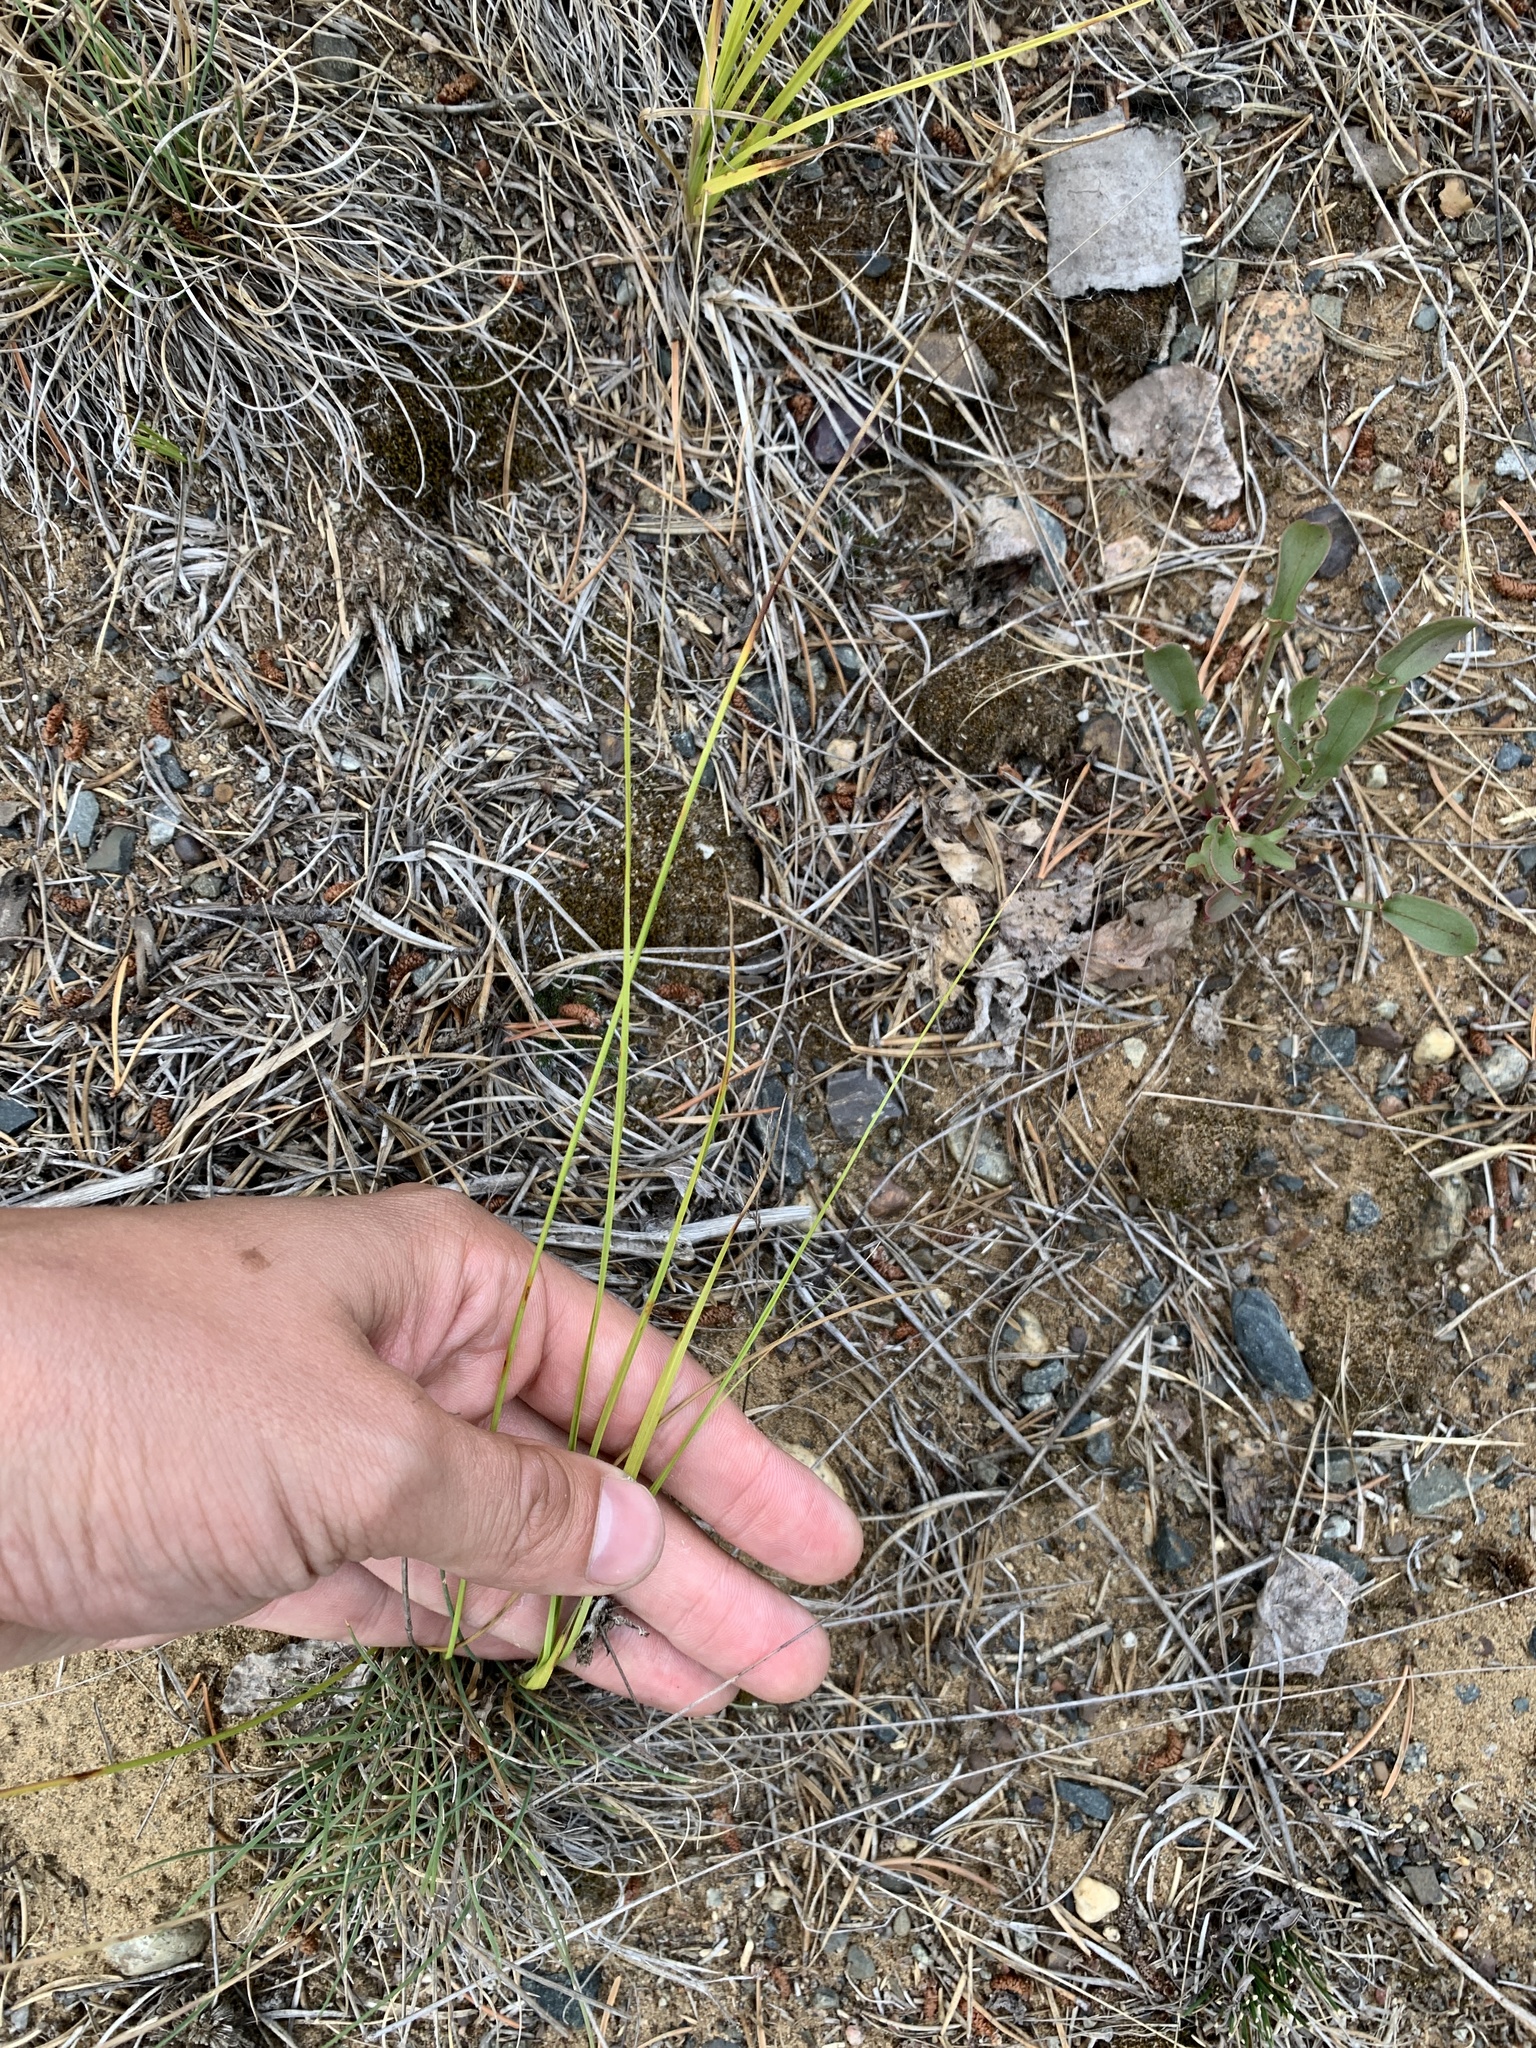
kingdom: Plantae
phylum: Tracheophyta
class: Liliopsida
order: Poales
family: Cyperaceae
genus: Carex
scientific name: Carex siccata
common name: Dry sedge
